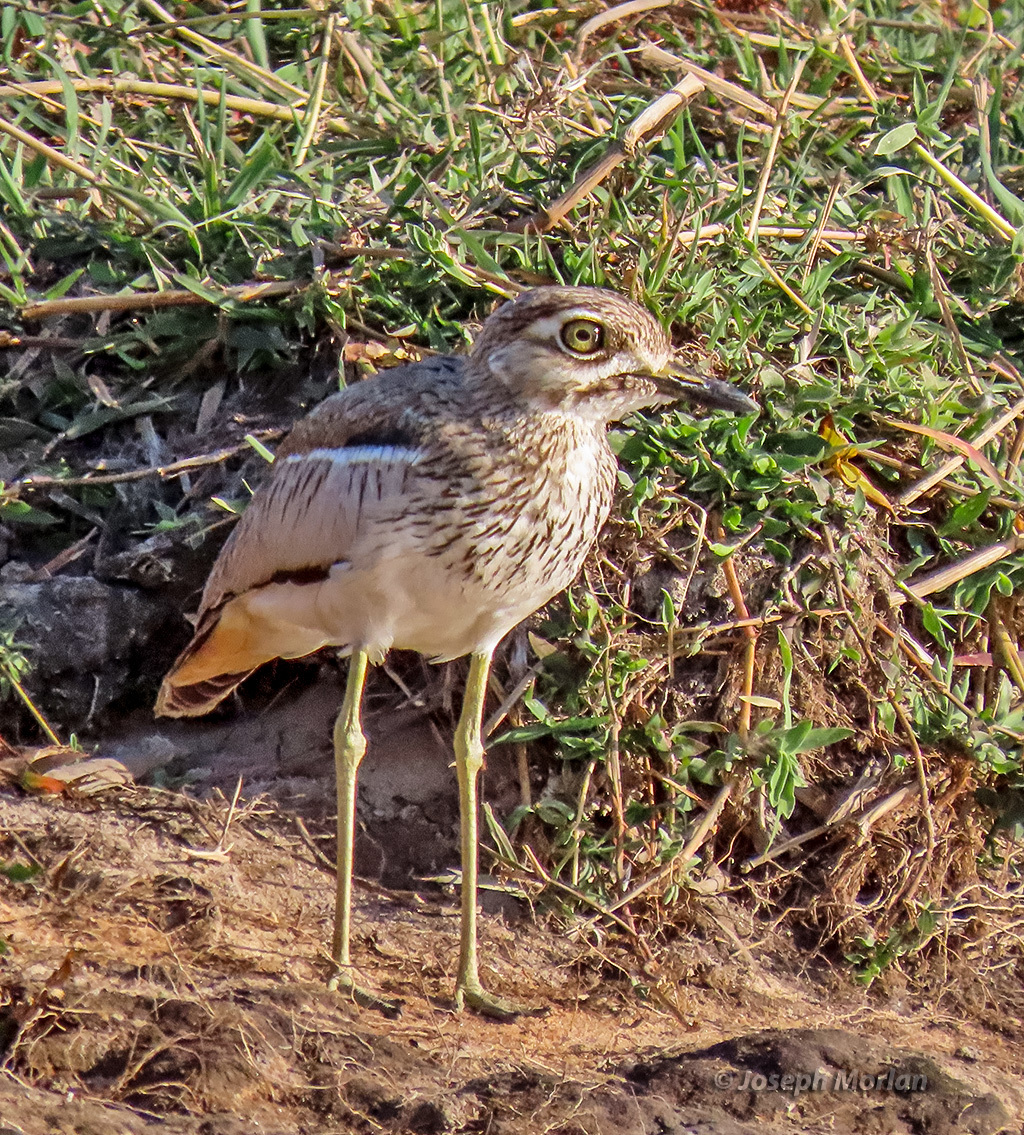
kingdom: Animalia
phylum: Chordata
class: Aves
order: Charadriiformes
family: Burhinidae
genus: Burhinus
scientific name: Burhinus vermiculatus
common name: Water thick-knee
